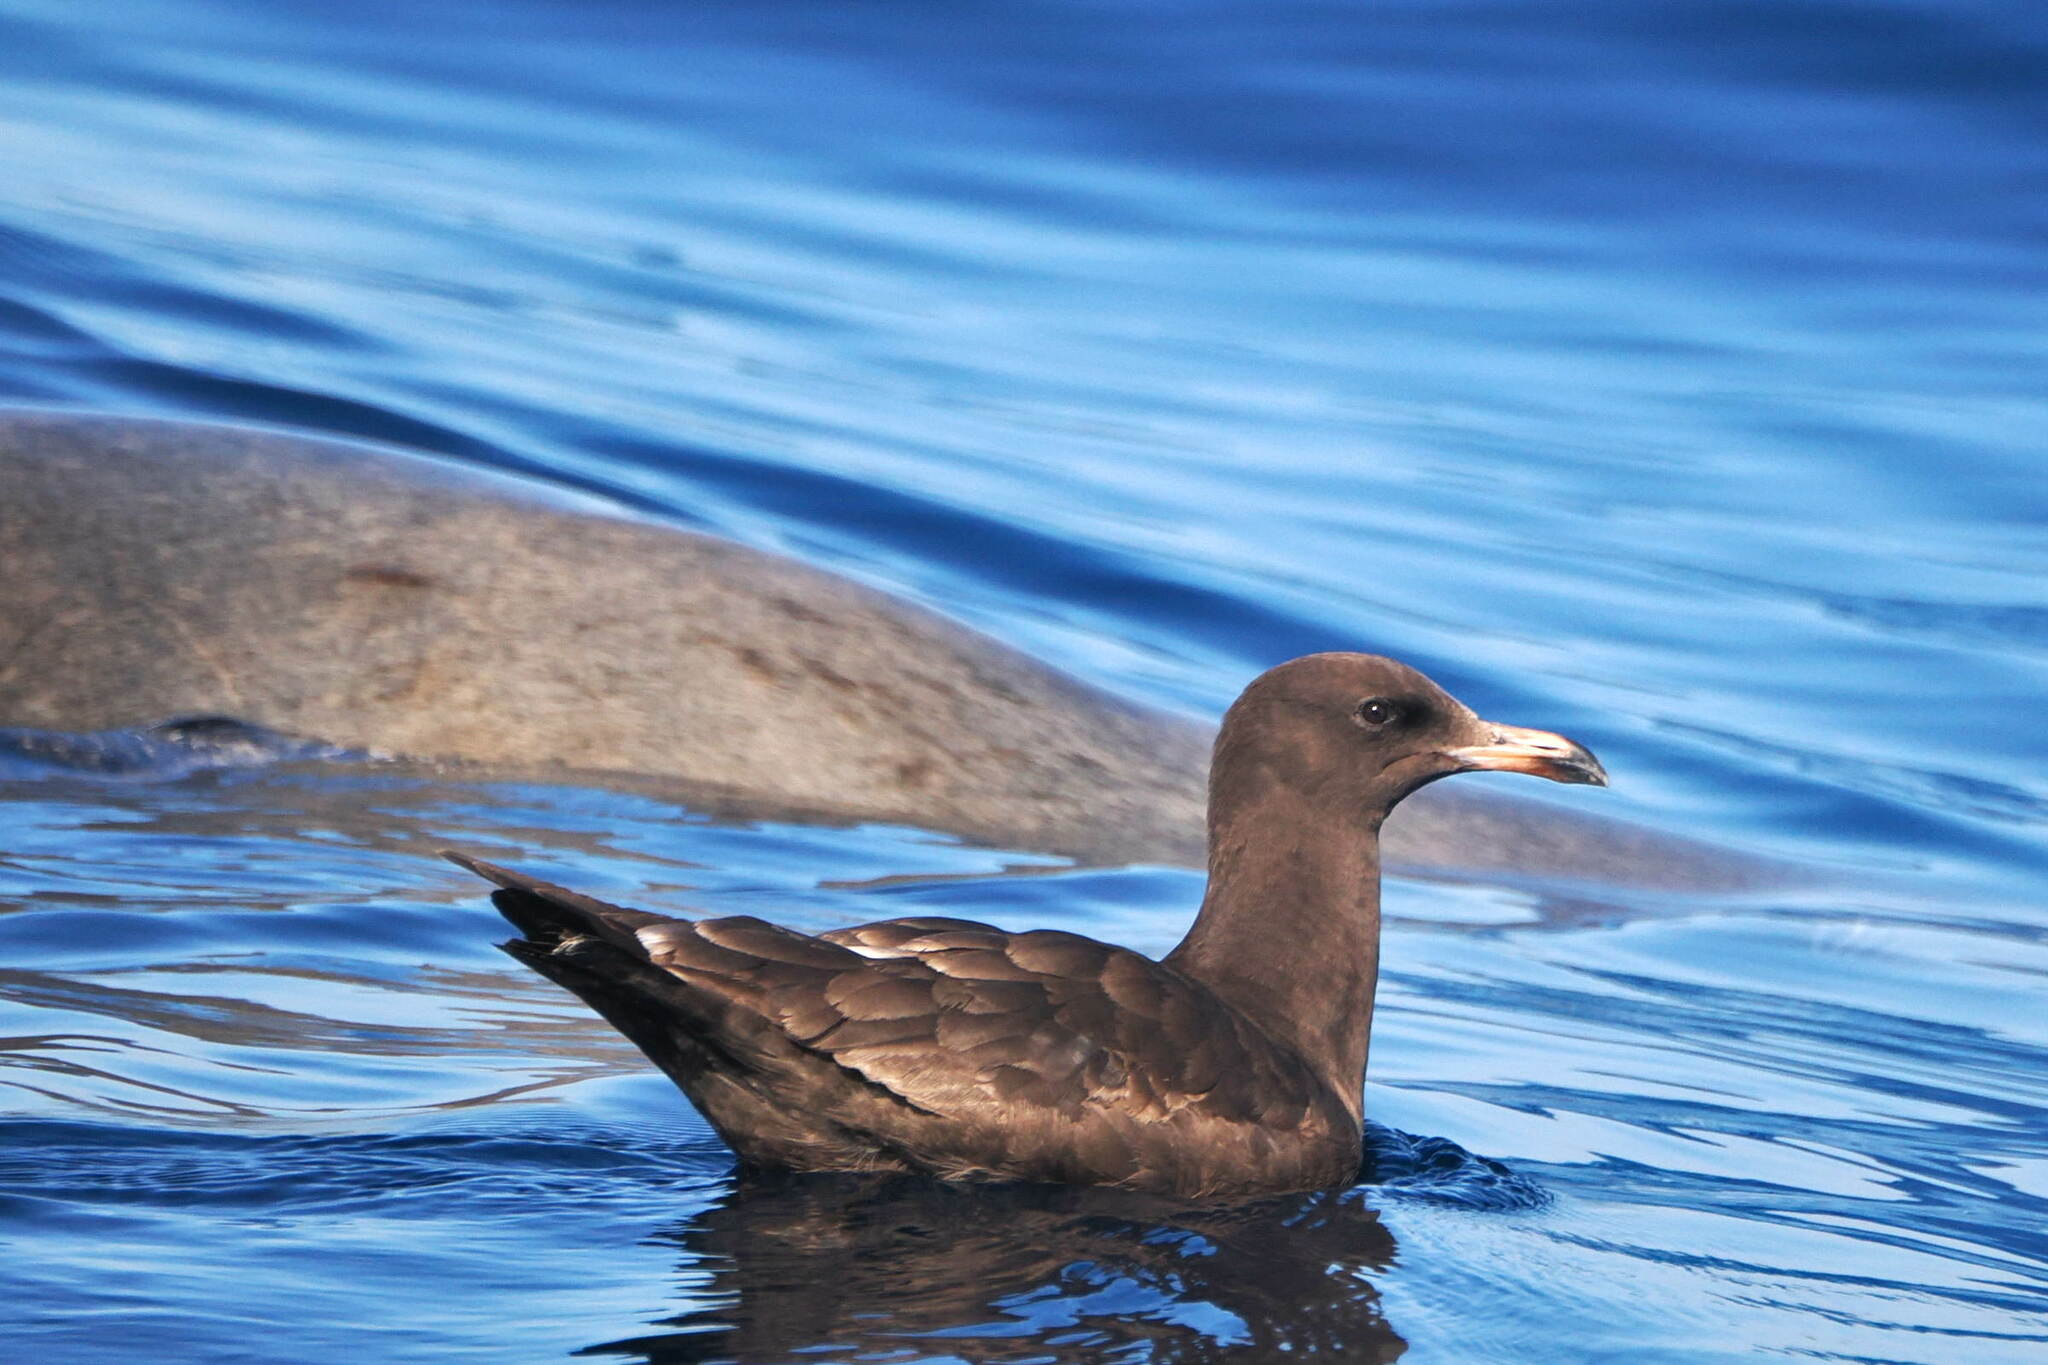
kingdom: Animalia
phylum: Chordata
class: Aves
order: Charadriiformes
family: Laridae
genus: Larus
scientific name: Larus heermanni
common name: Heermann's gull
